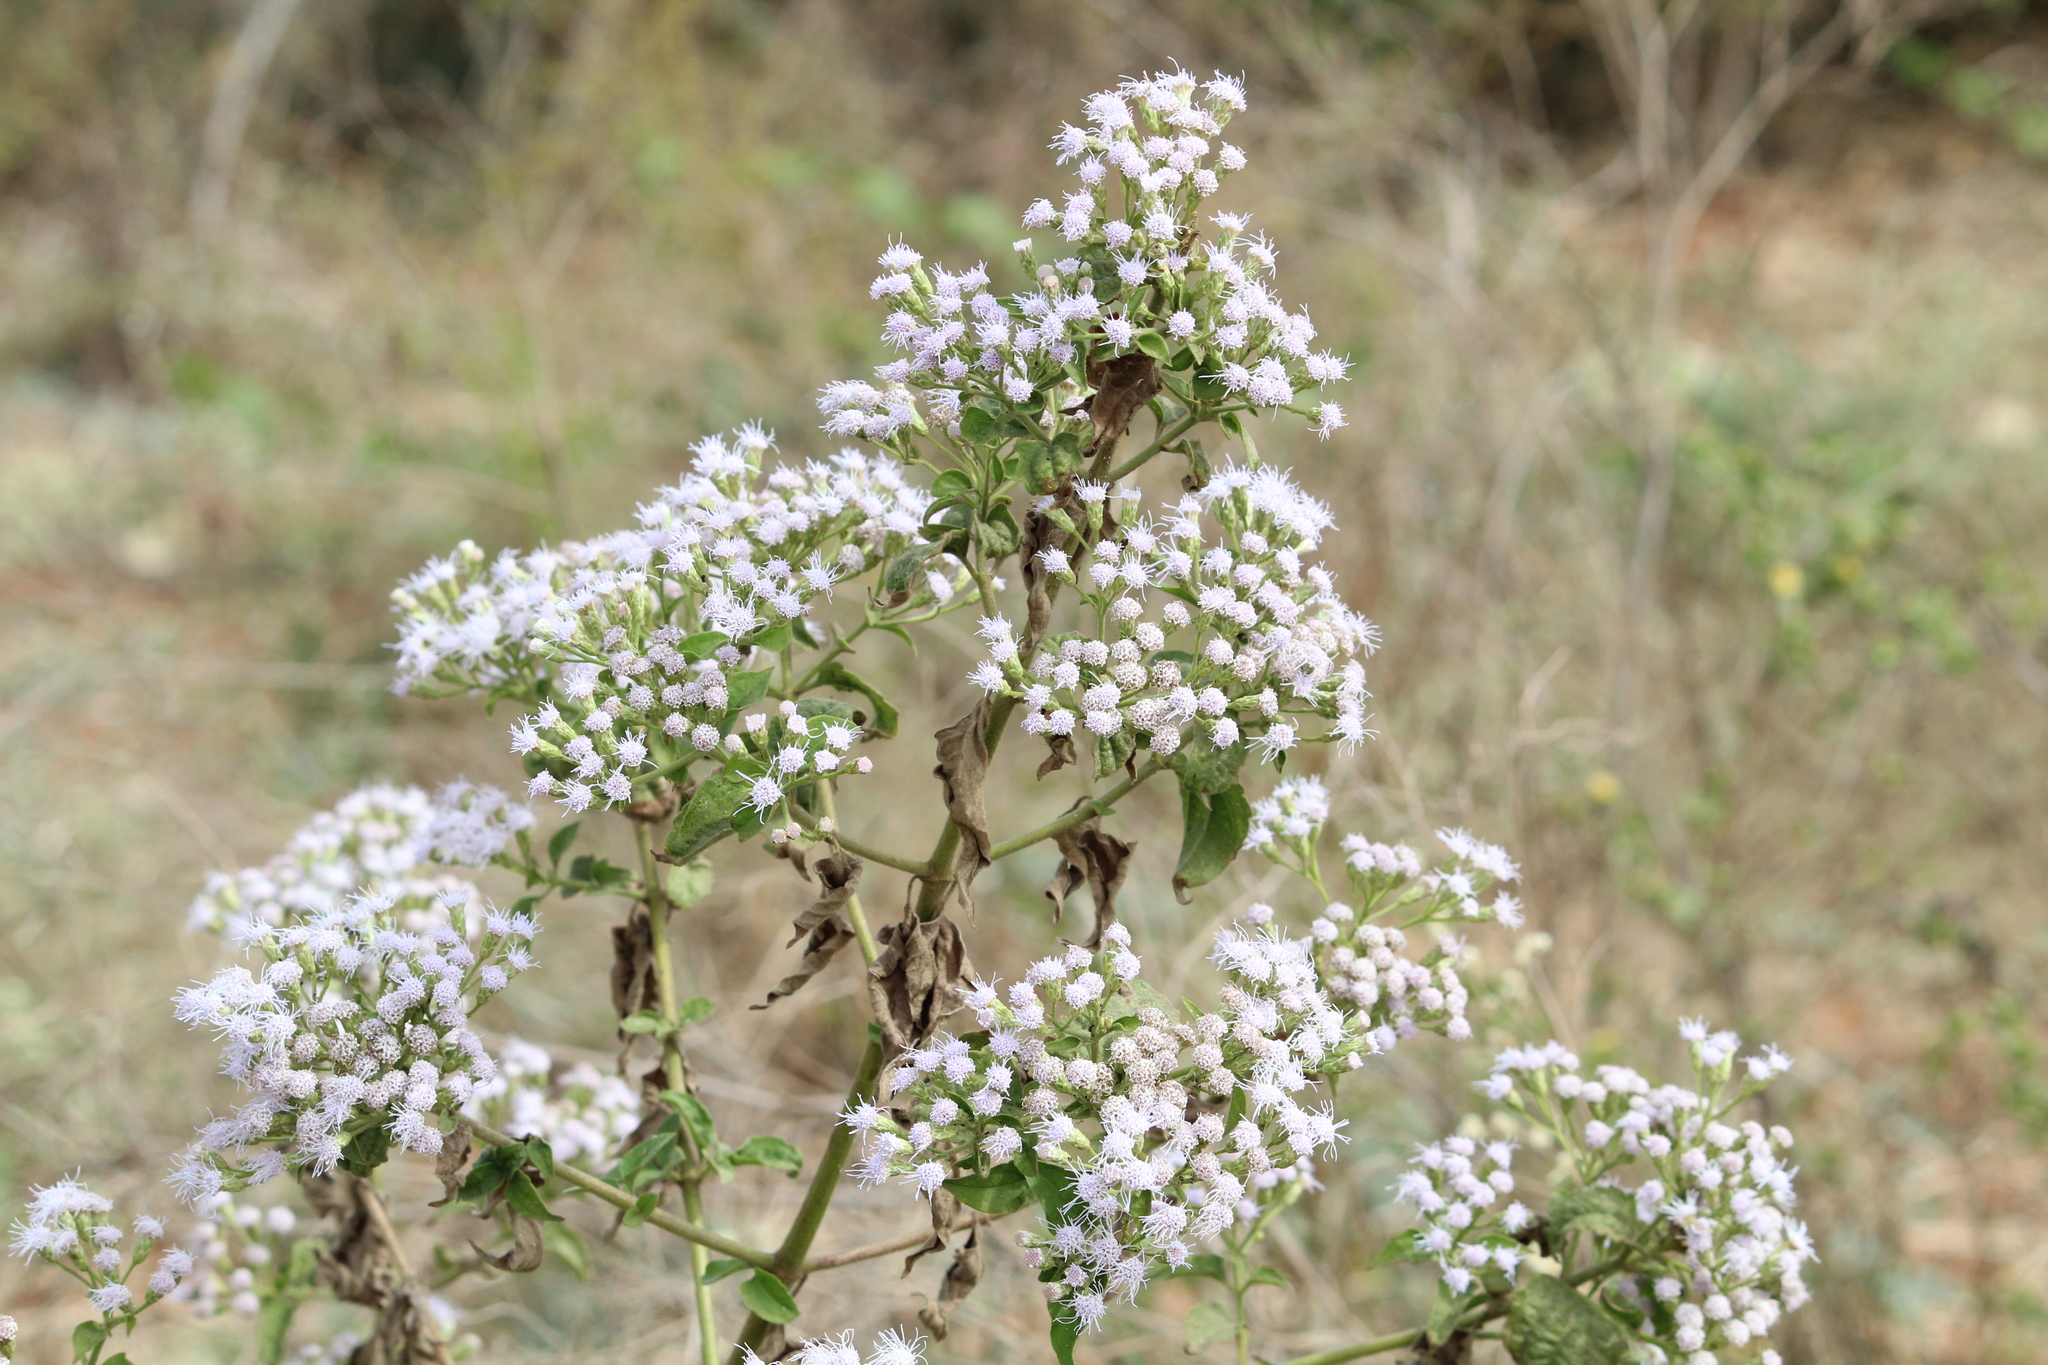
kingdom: Plantae
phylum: Tracheophyta
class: Magnoliopsida
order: Asterales
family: Asteraceae
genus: Chromolaena
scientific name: Chromolaena odorata
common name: Siamweed
